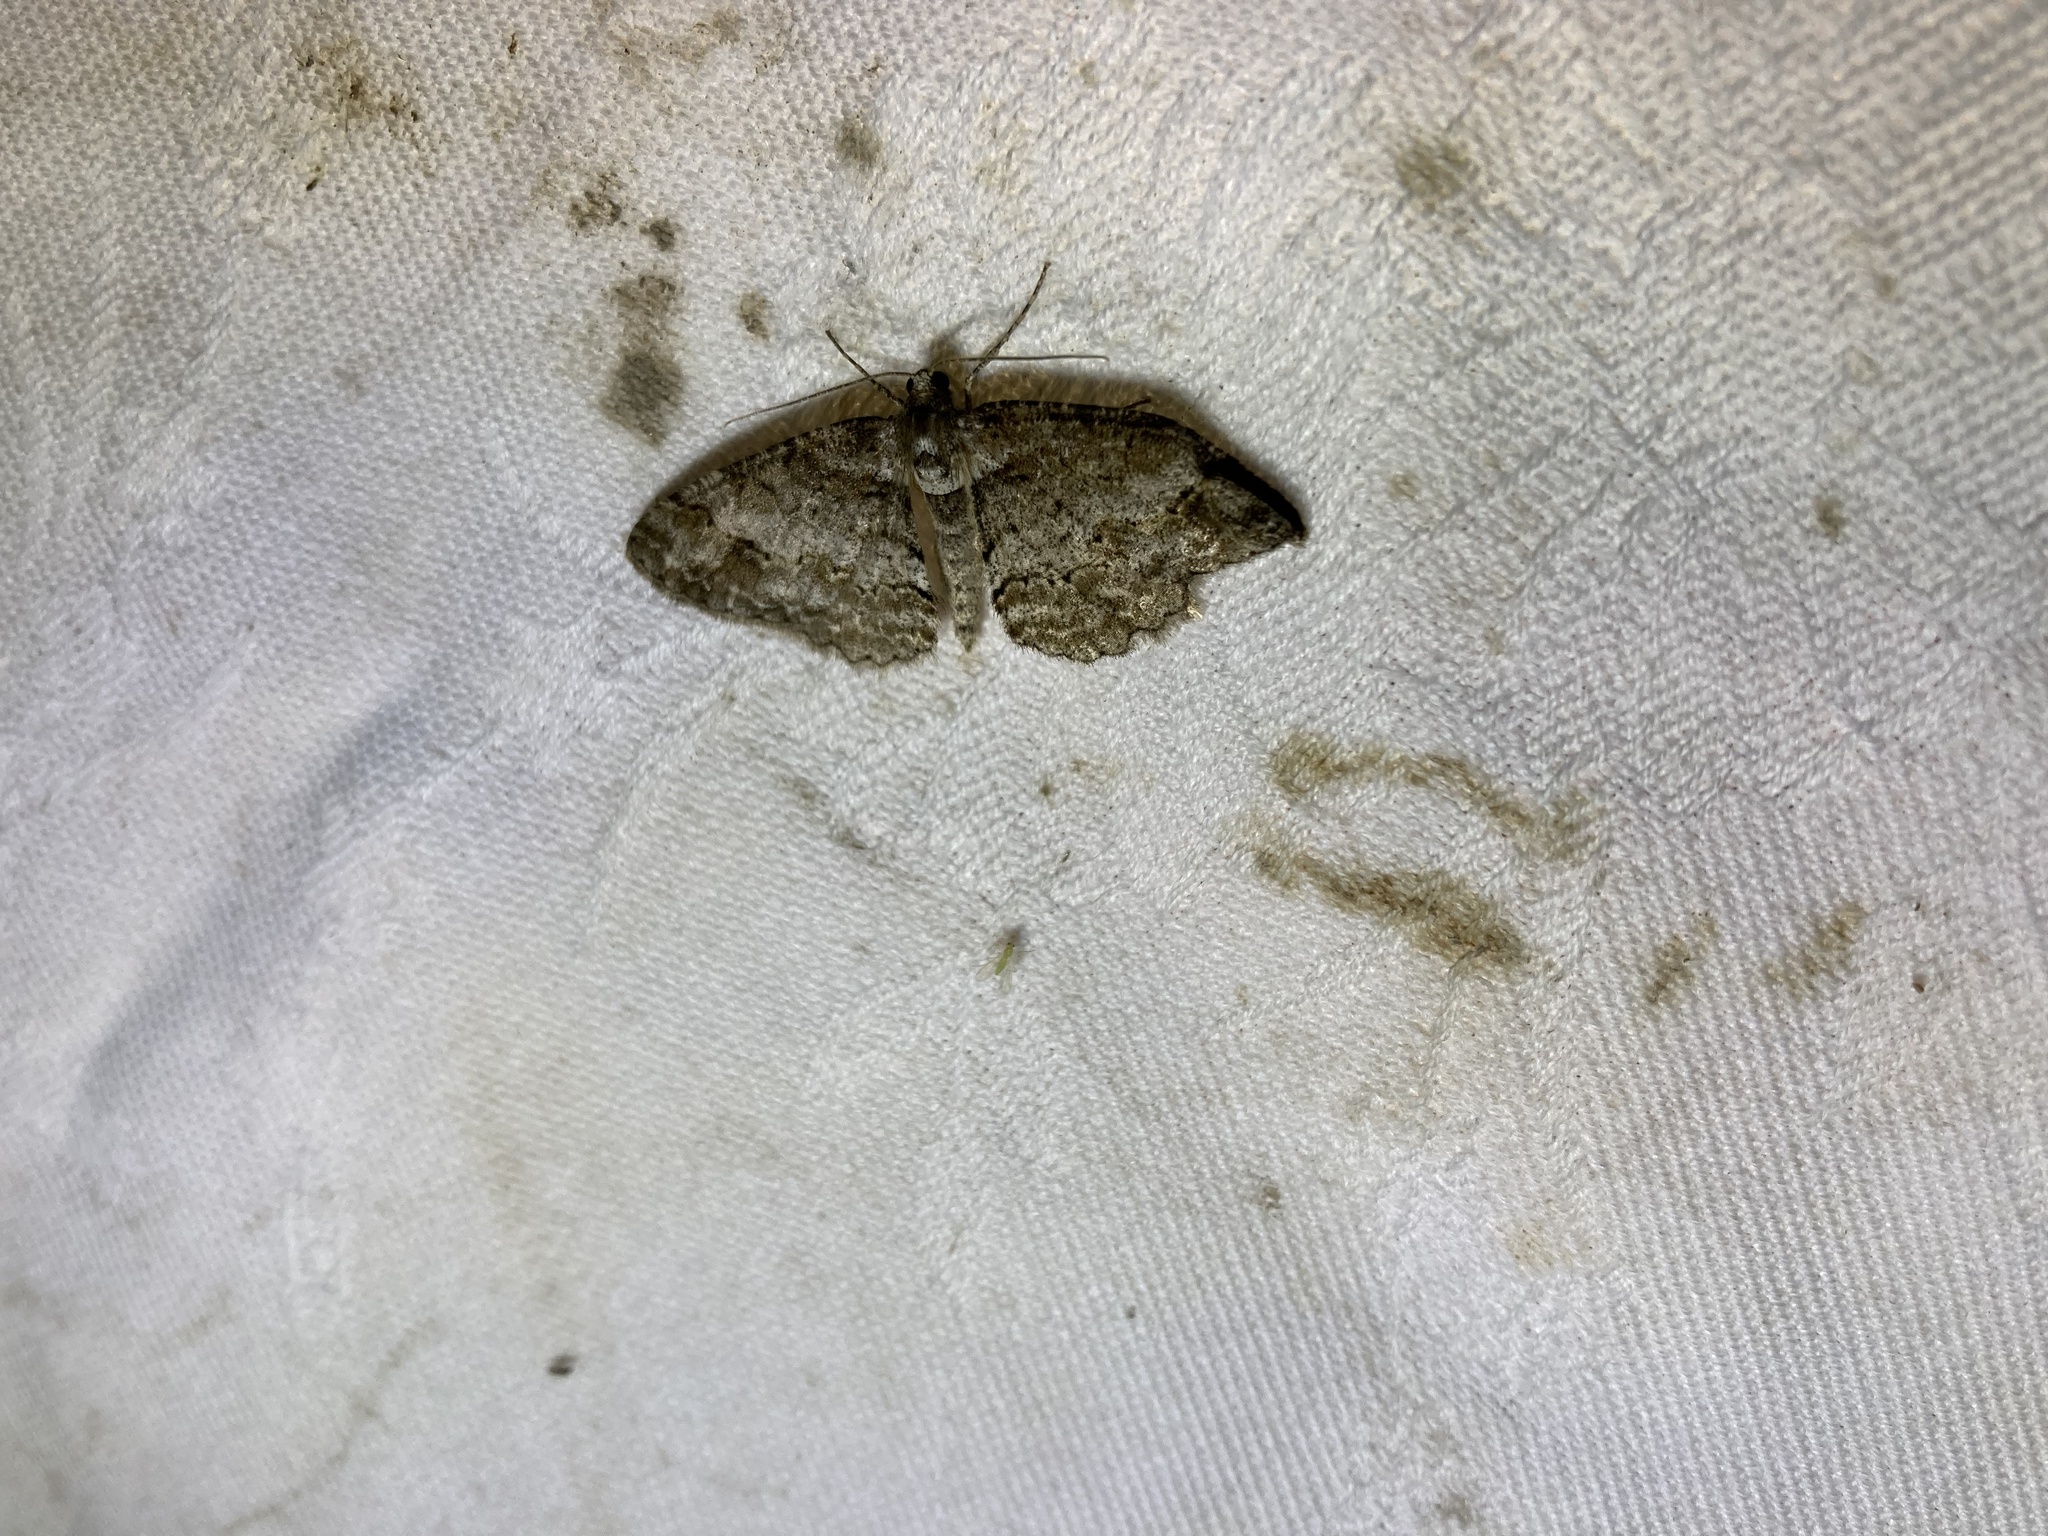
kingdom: Animalia
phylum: Arthropoda
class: Insecta
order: Lepidoptera
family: Geometridae
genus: Paradarisa
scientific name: Paradarisa consonaria
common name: Square spot
